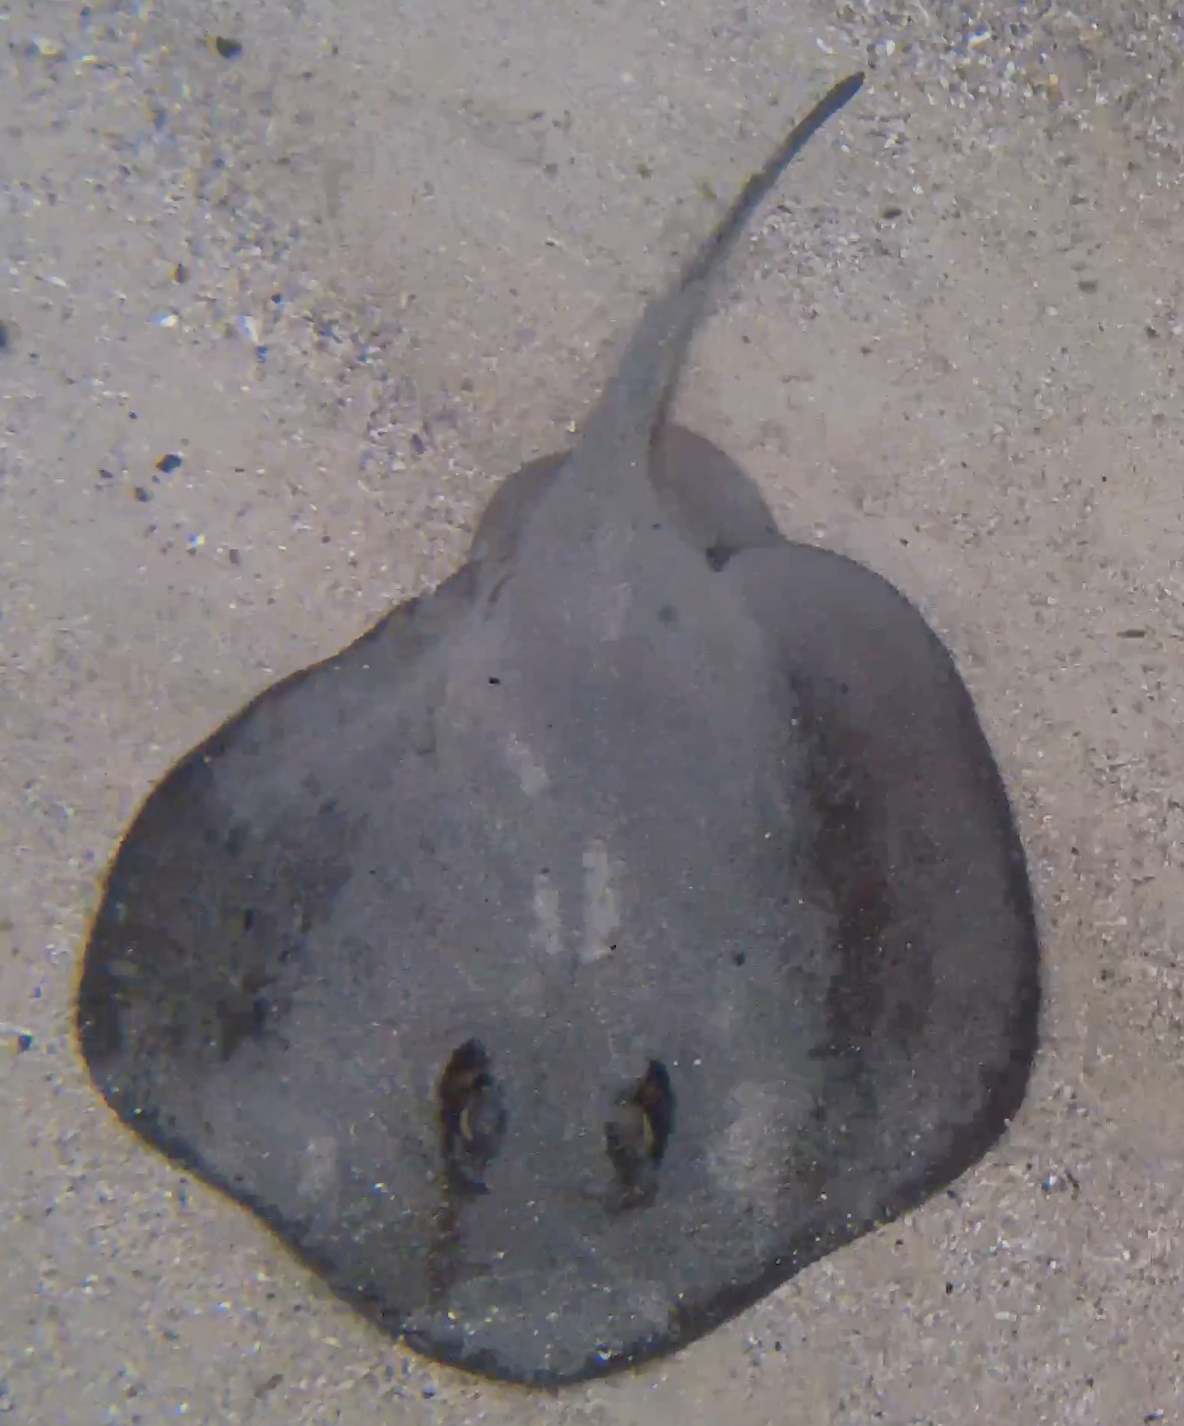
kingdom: Animalia
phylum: Chordata
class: Elasmobranchii
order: Myliobatiformes
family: Urolophidae
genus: Trygonoptera
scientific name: Trygonoptera testacea
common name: Common stingaree
